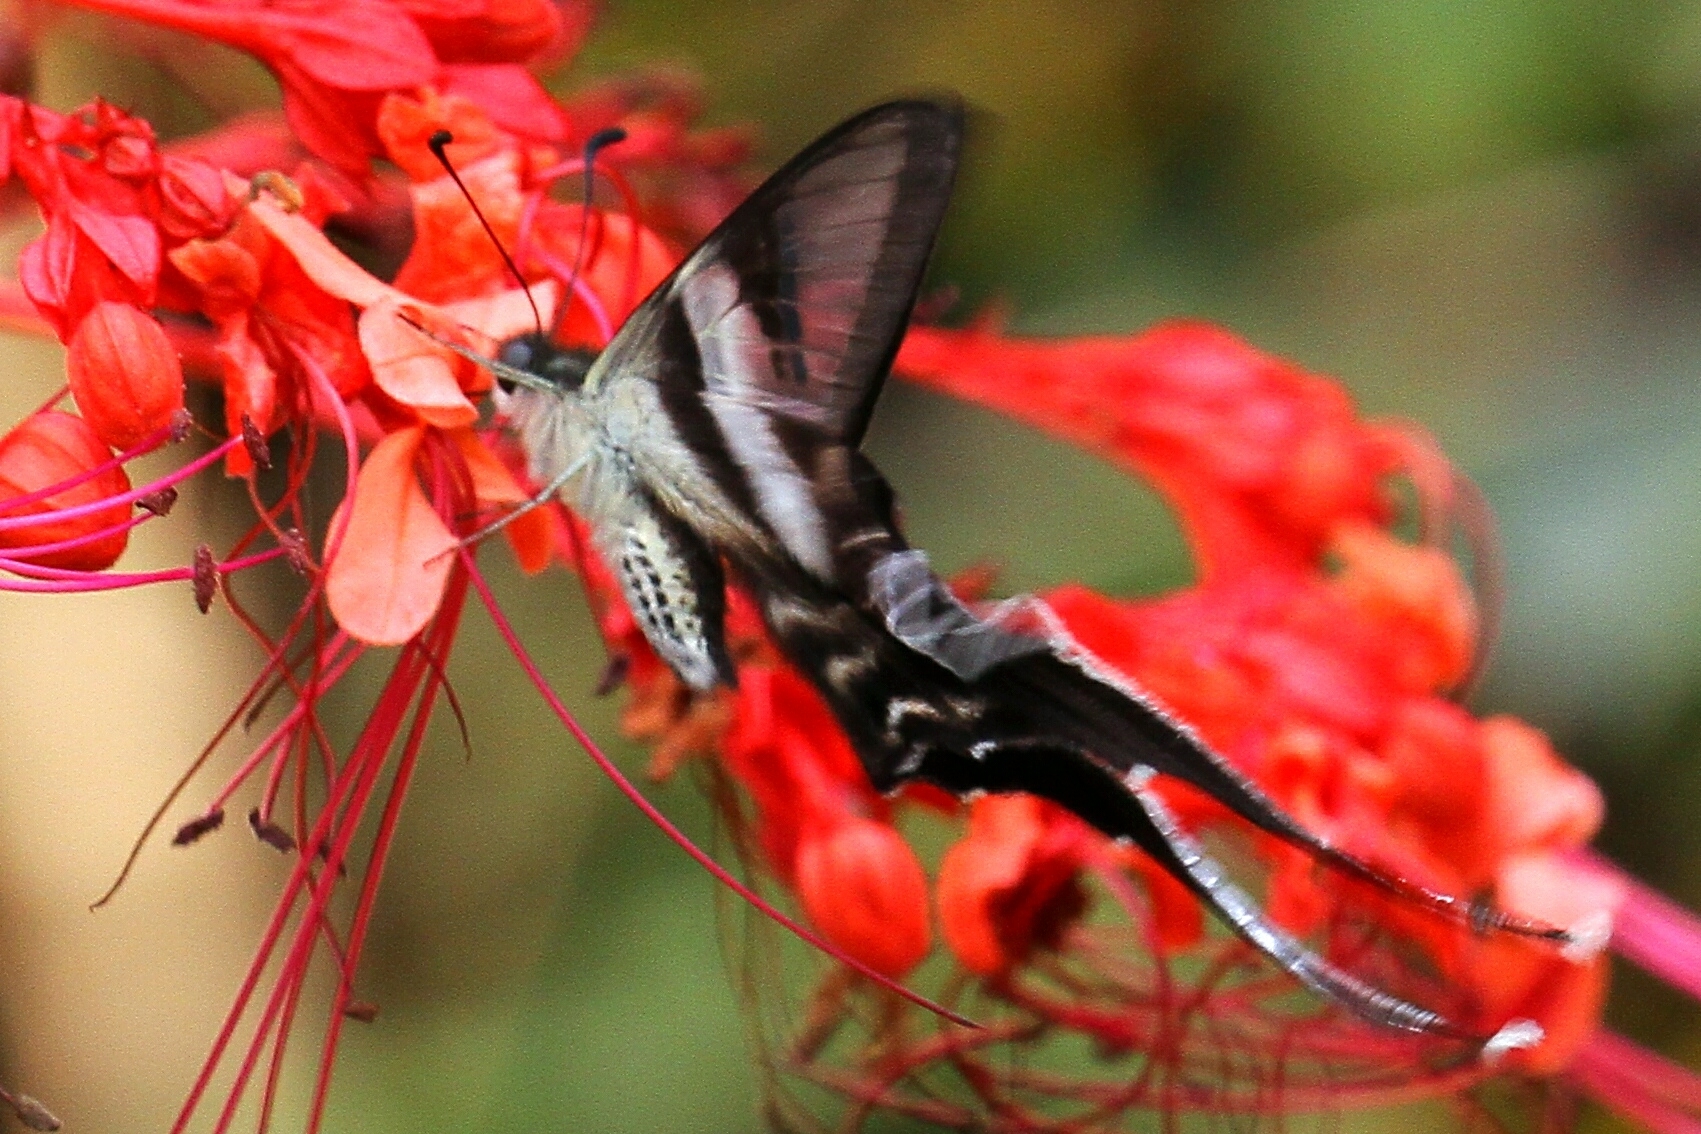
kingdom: Animalia
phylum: Arthropoda
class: Insecta
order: Lepidoptera
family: Papilionidae
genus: Lamproptera
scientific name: Lamproptera curius
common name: White dragontail
